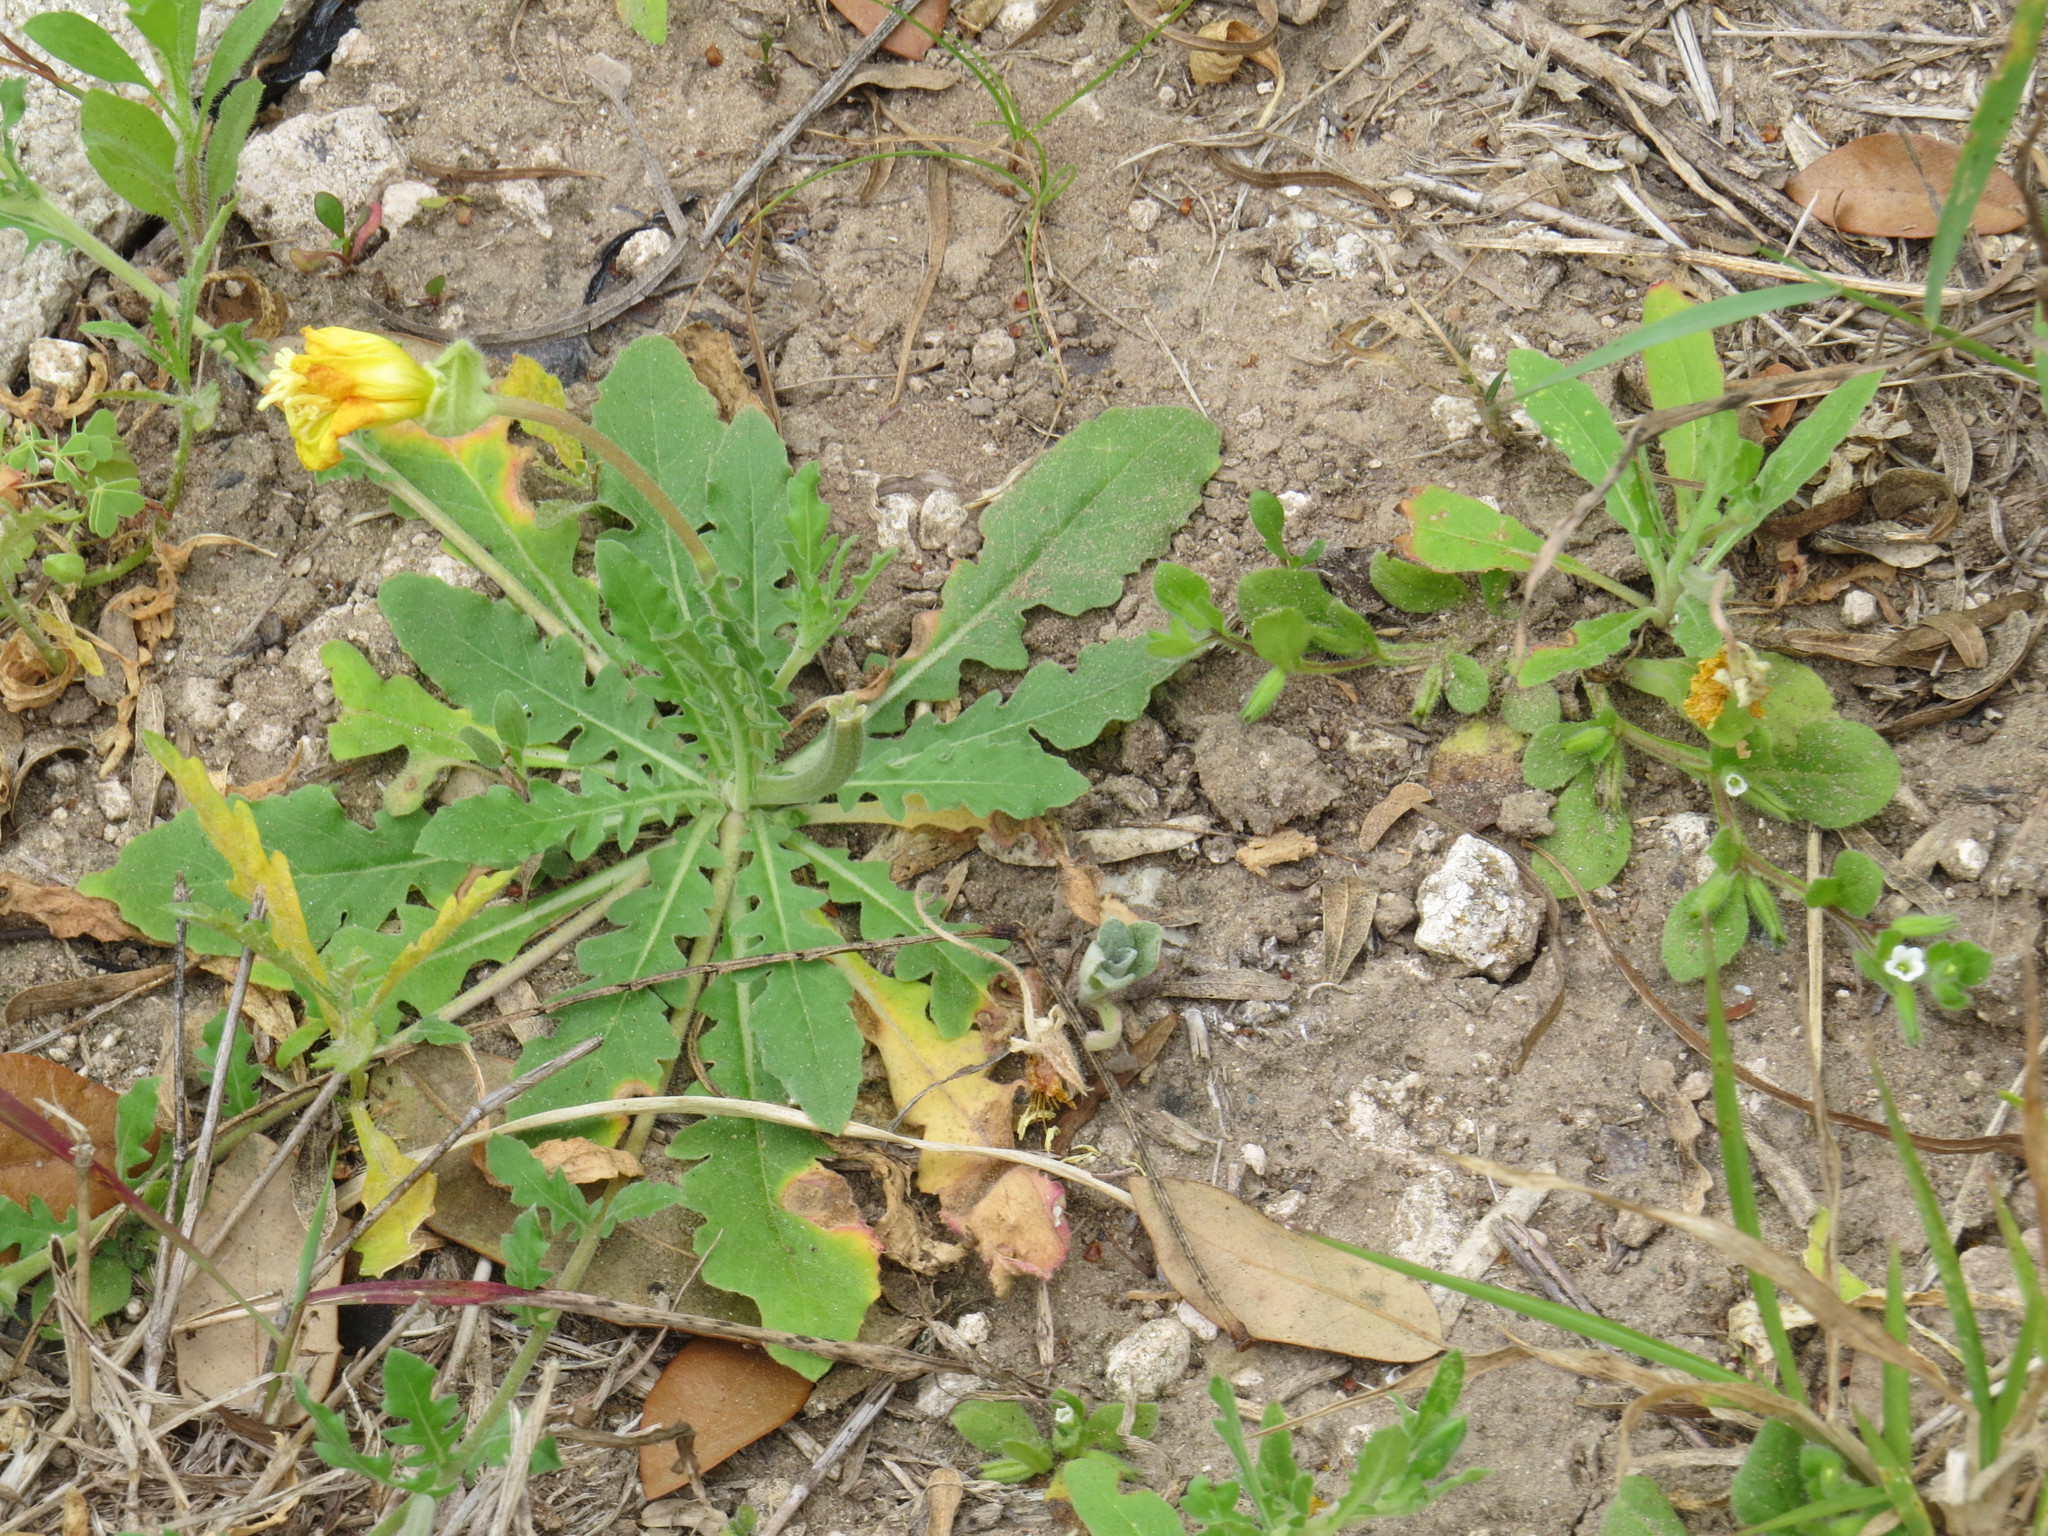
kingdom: Plantae
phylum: Tracheophyta
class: Magnoliopsida
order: Myrtales
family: Onagraceae
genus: Oenothera
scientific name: Oenothera grandis
